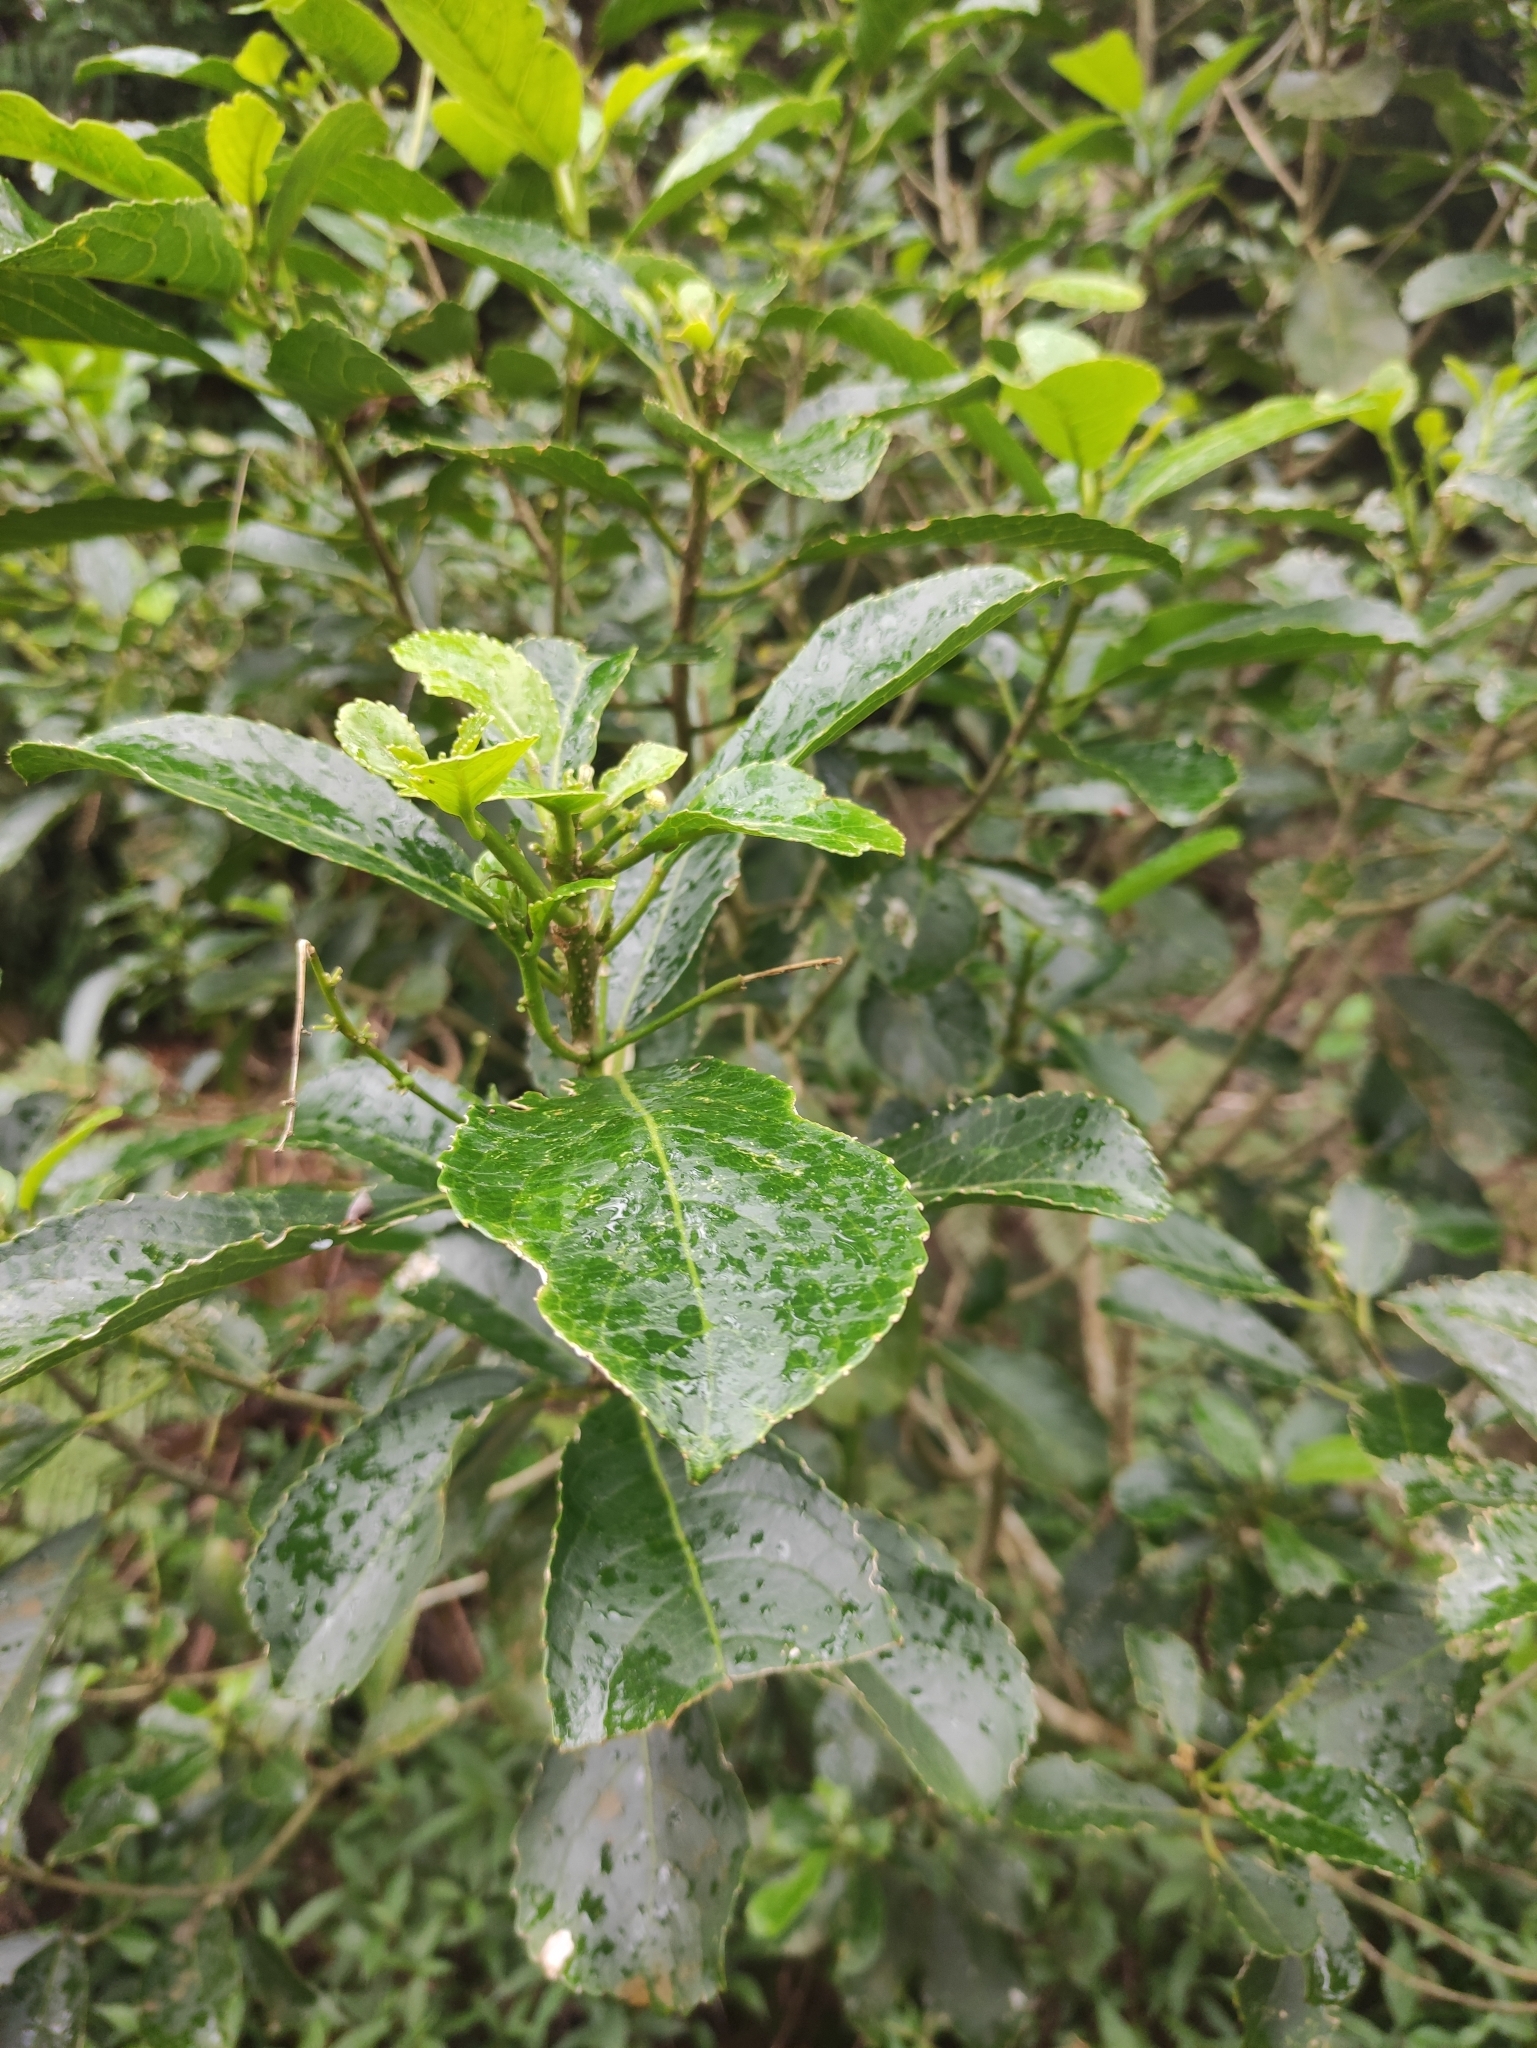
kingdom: Plantae
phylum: Tracheophyta
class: Magnoliopsida
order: Crossosomatales
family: Aphloiaceae
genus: Aphloia
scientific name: Aphloia theiformis
